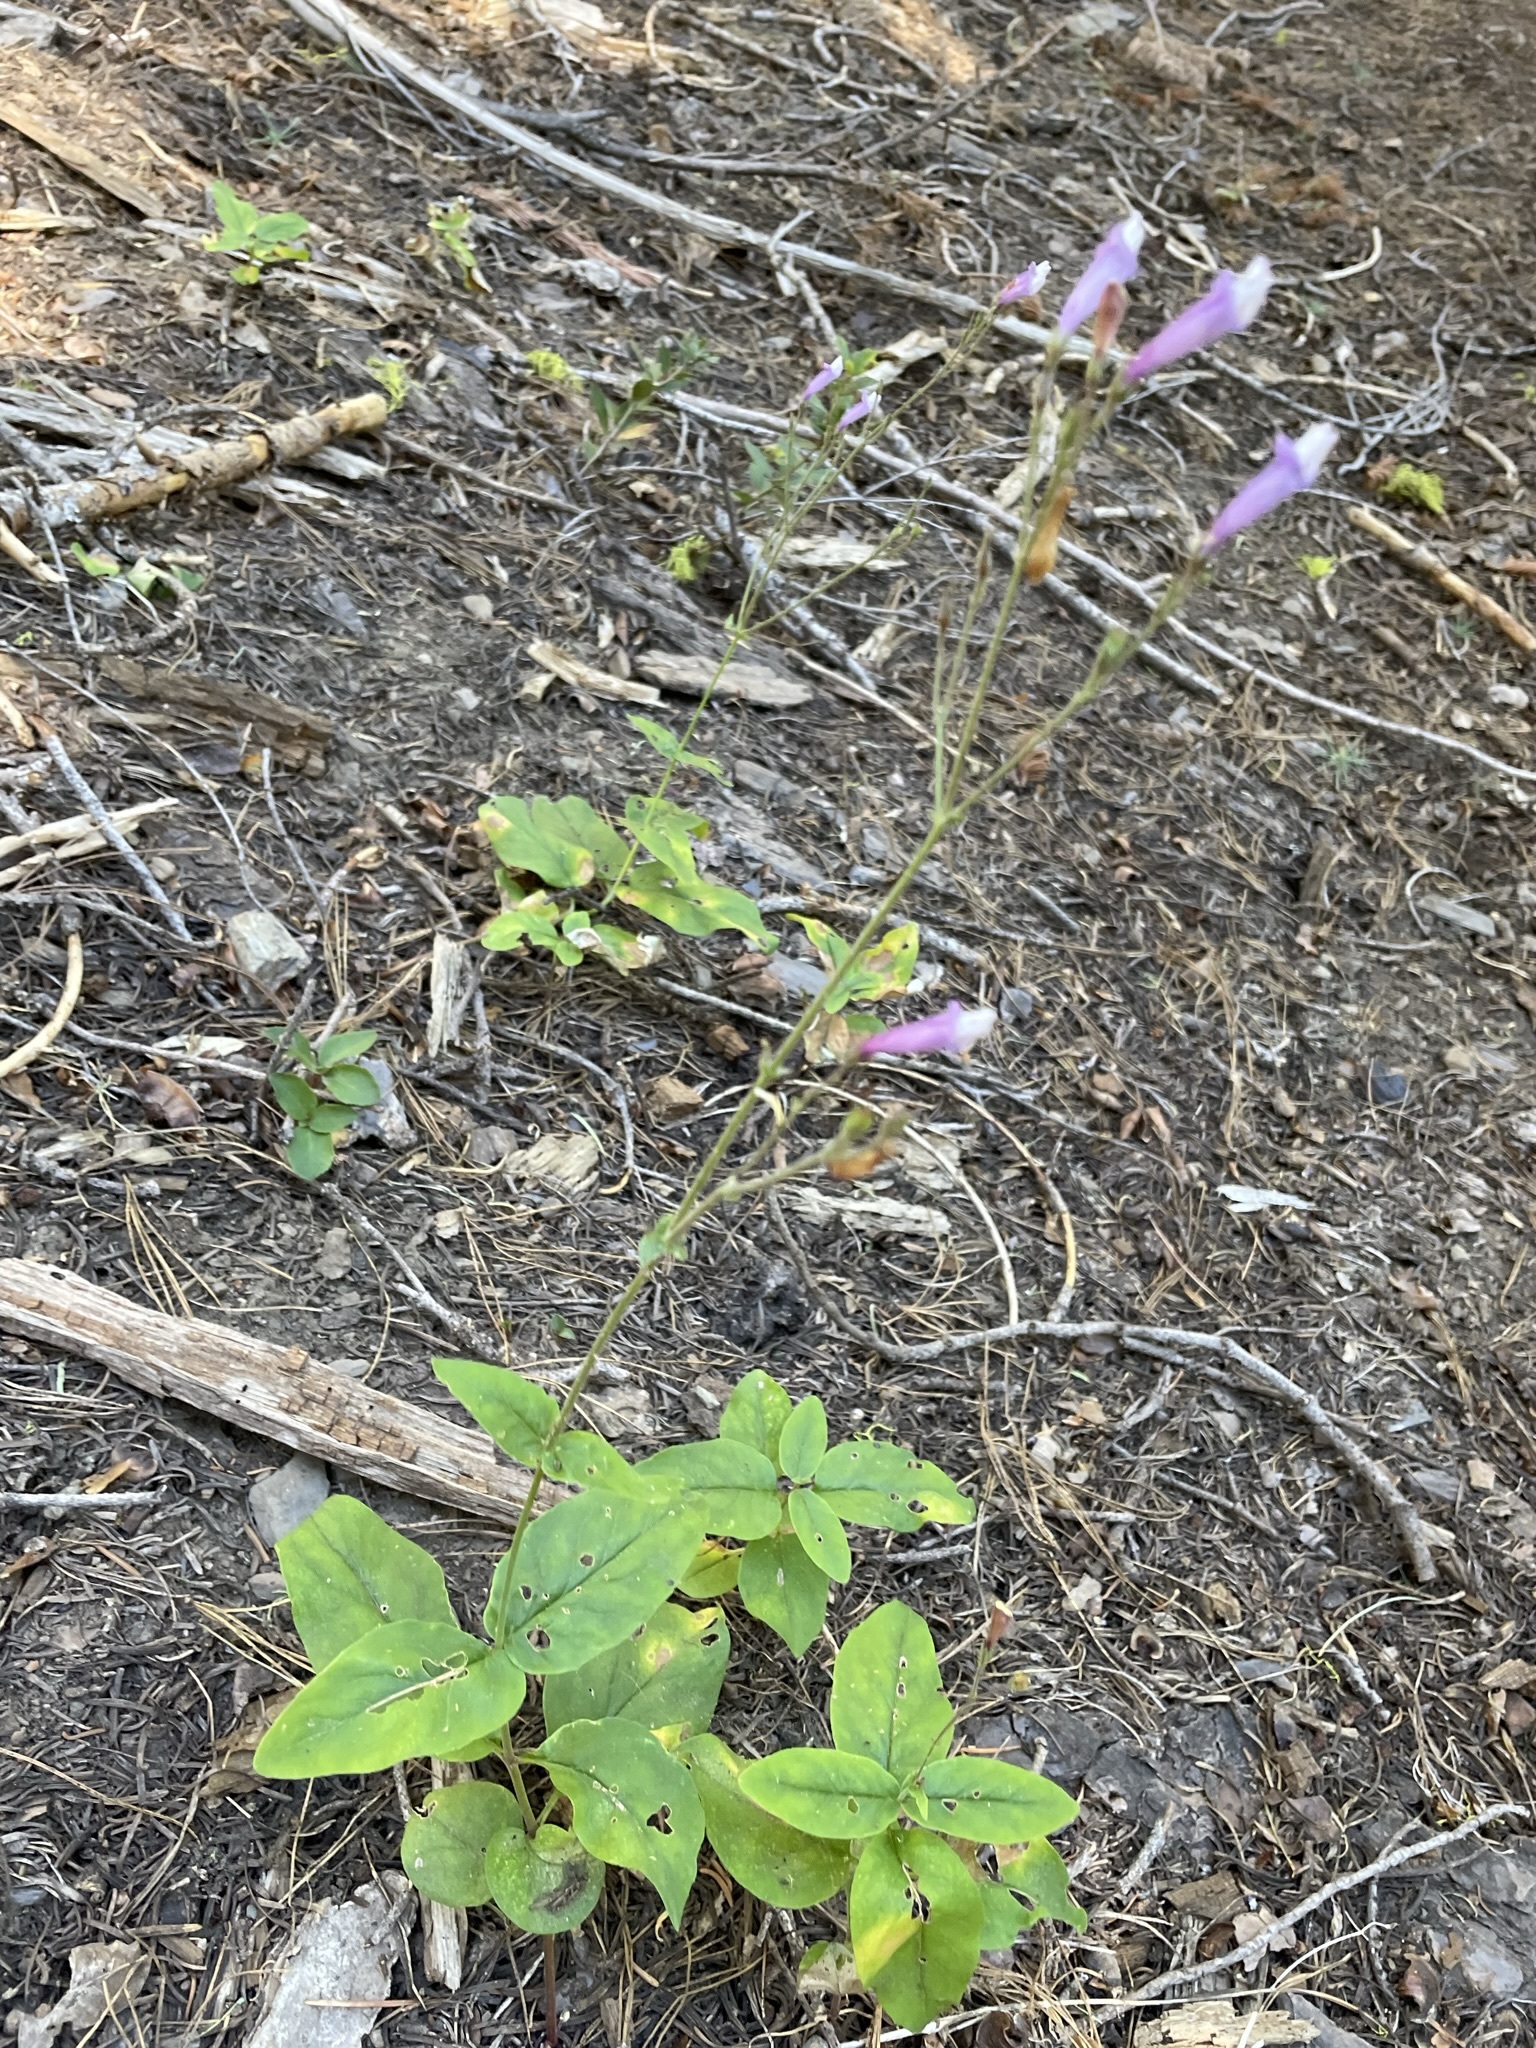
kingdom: Plantae
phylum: Tracheophyta
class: Magnoliopsida
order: Lamiales
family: Plantaginaceae
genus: Penstemon
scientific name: Penstemon personatus
